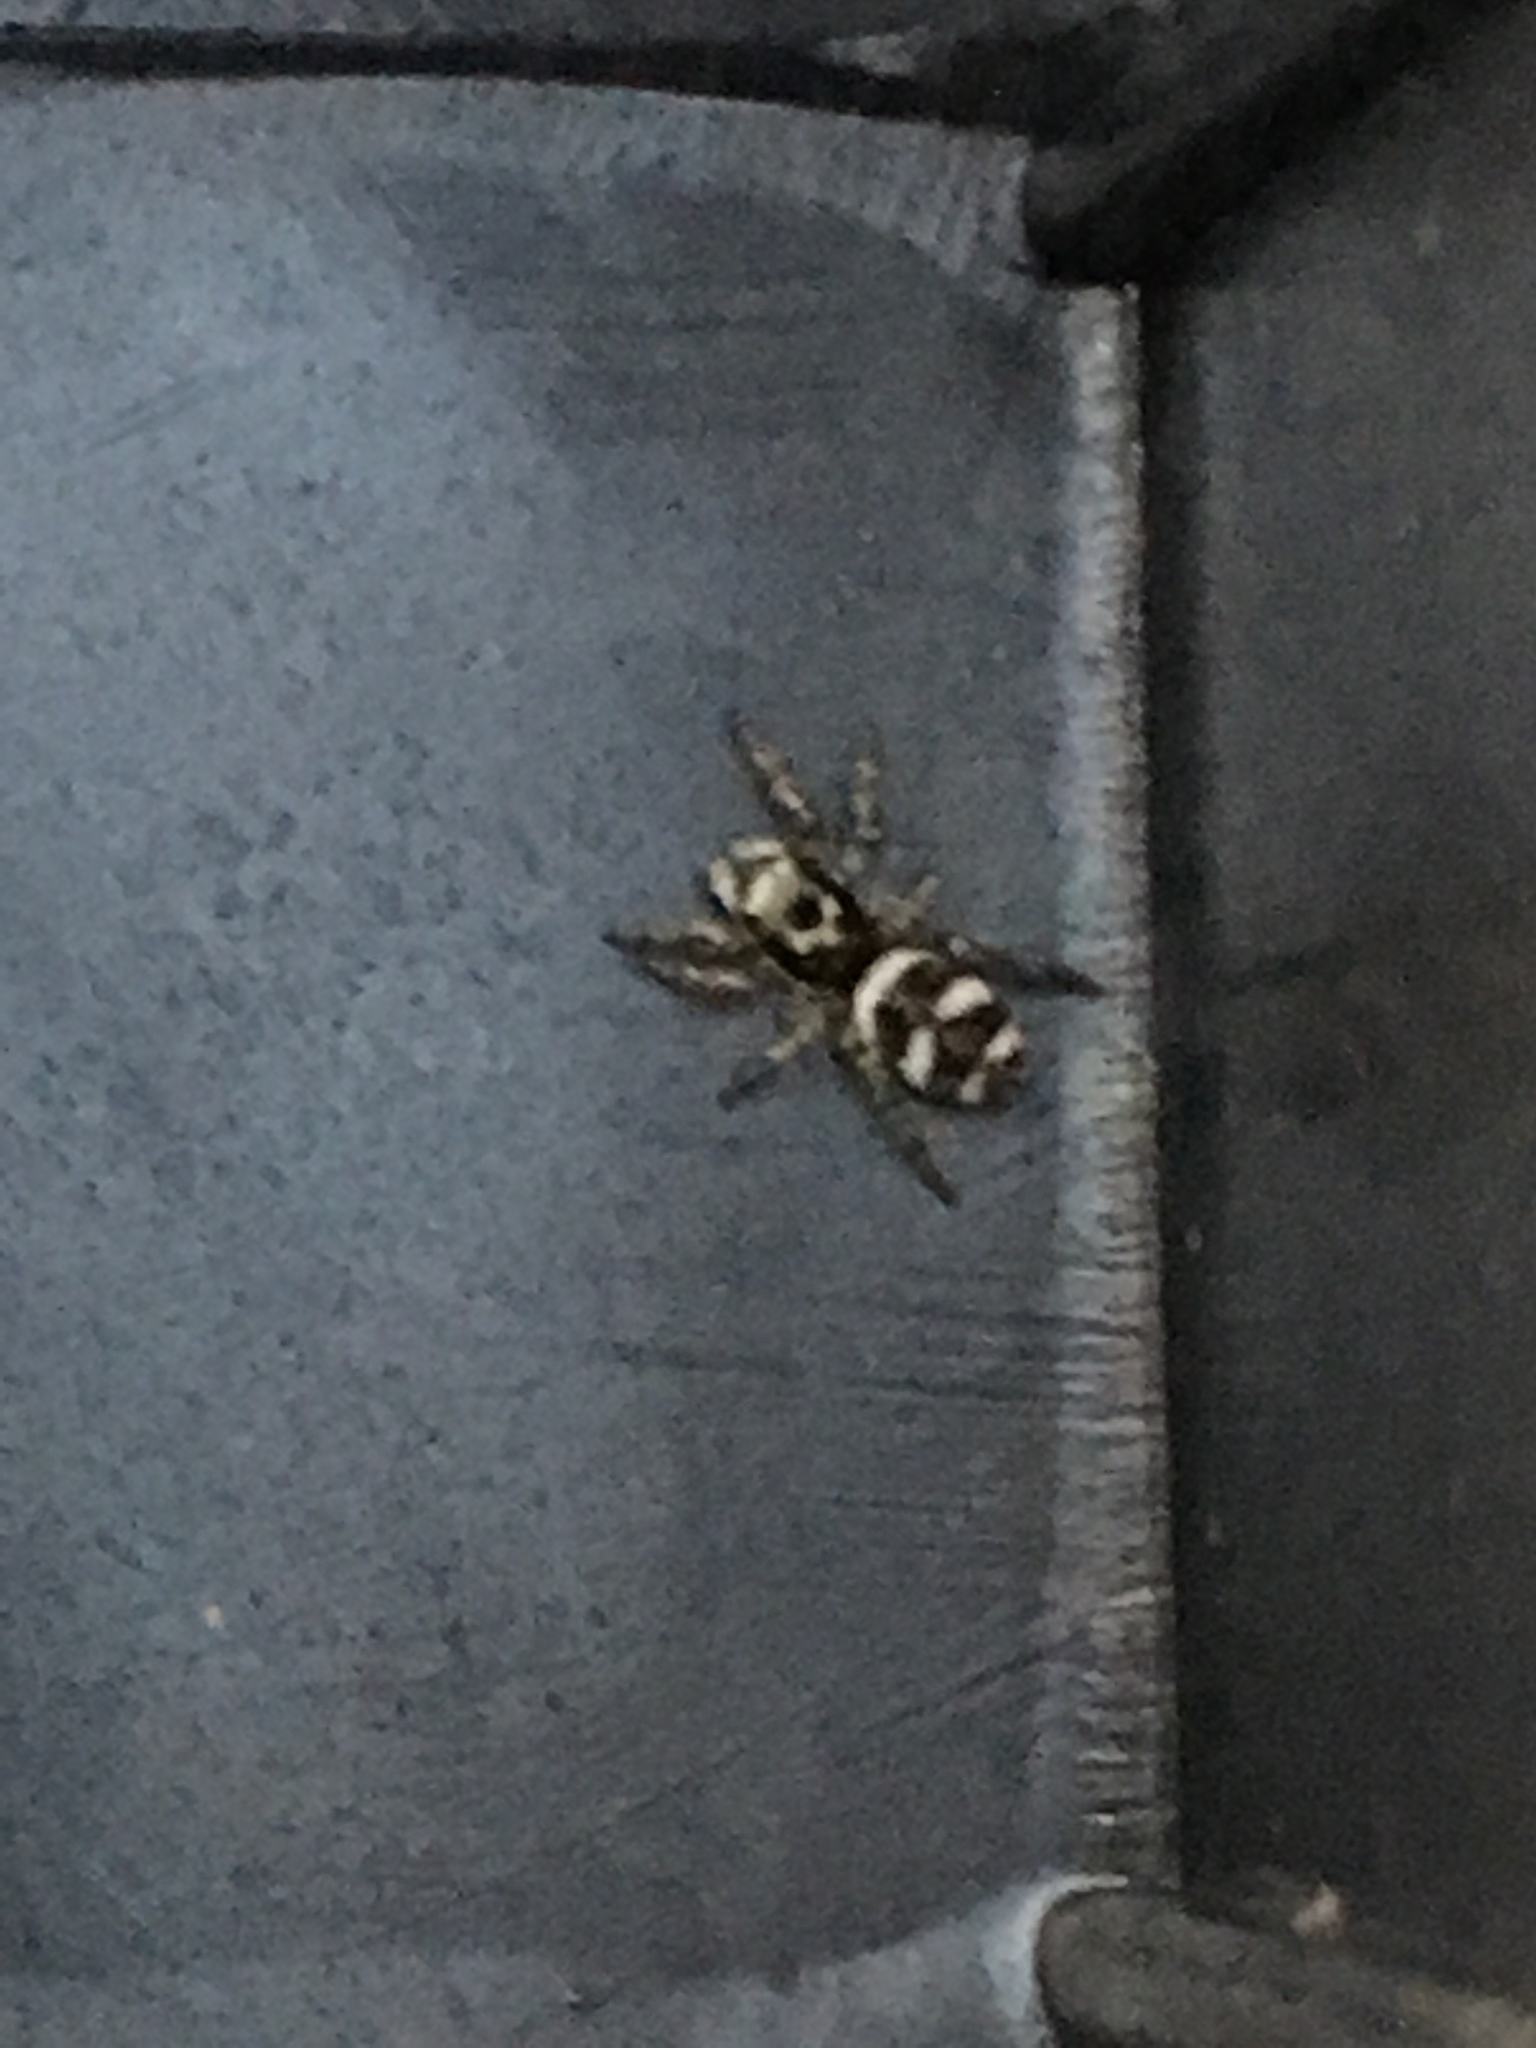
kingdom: Animalia
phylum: Arthropoda
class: Arachnida
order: Araneae
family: Salticidae
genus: Salticus
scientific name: Salticus scenicus
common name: Zebra jumper
